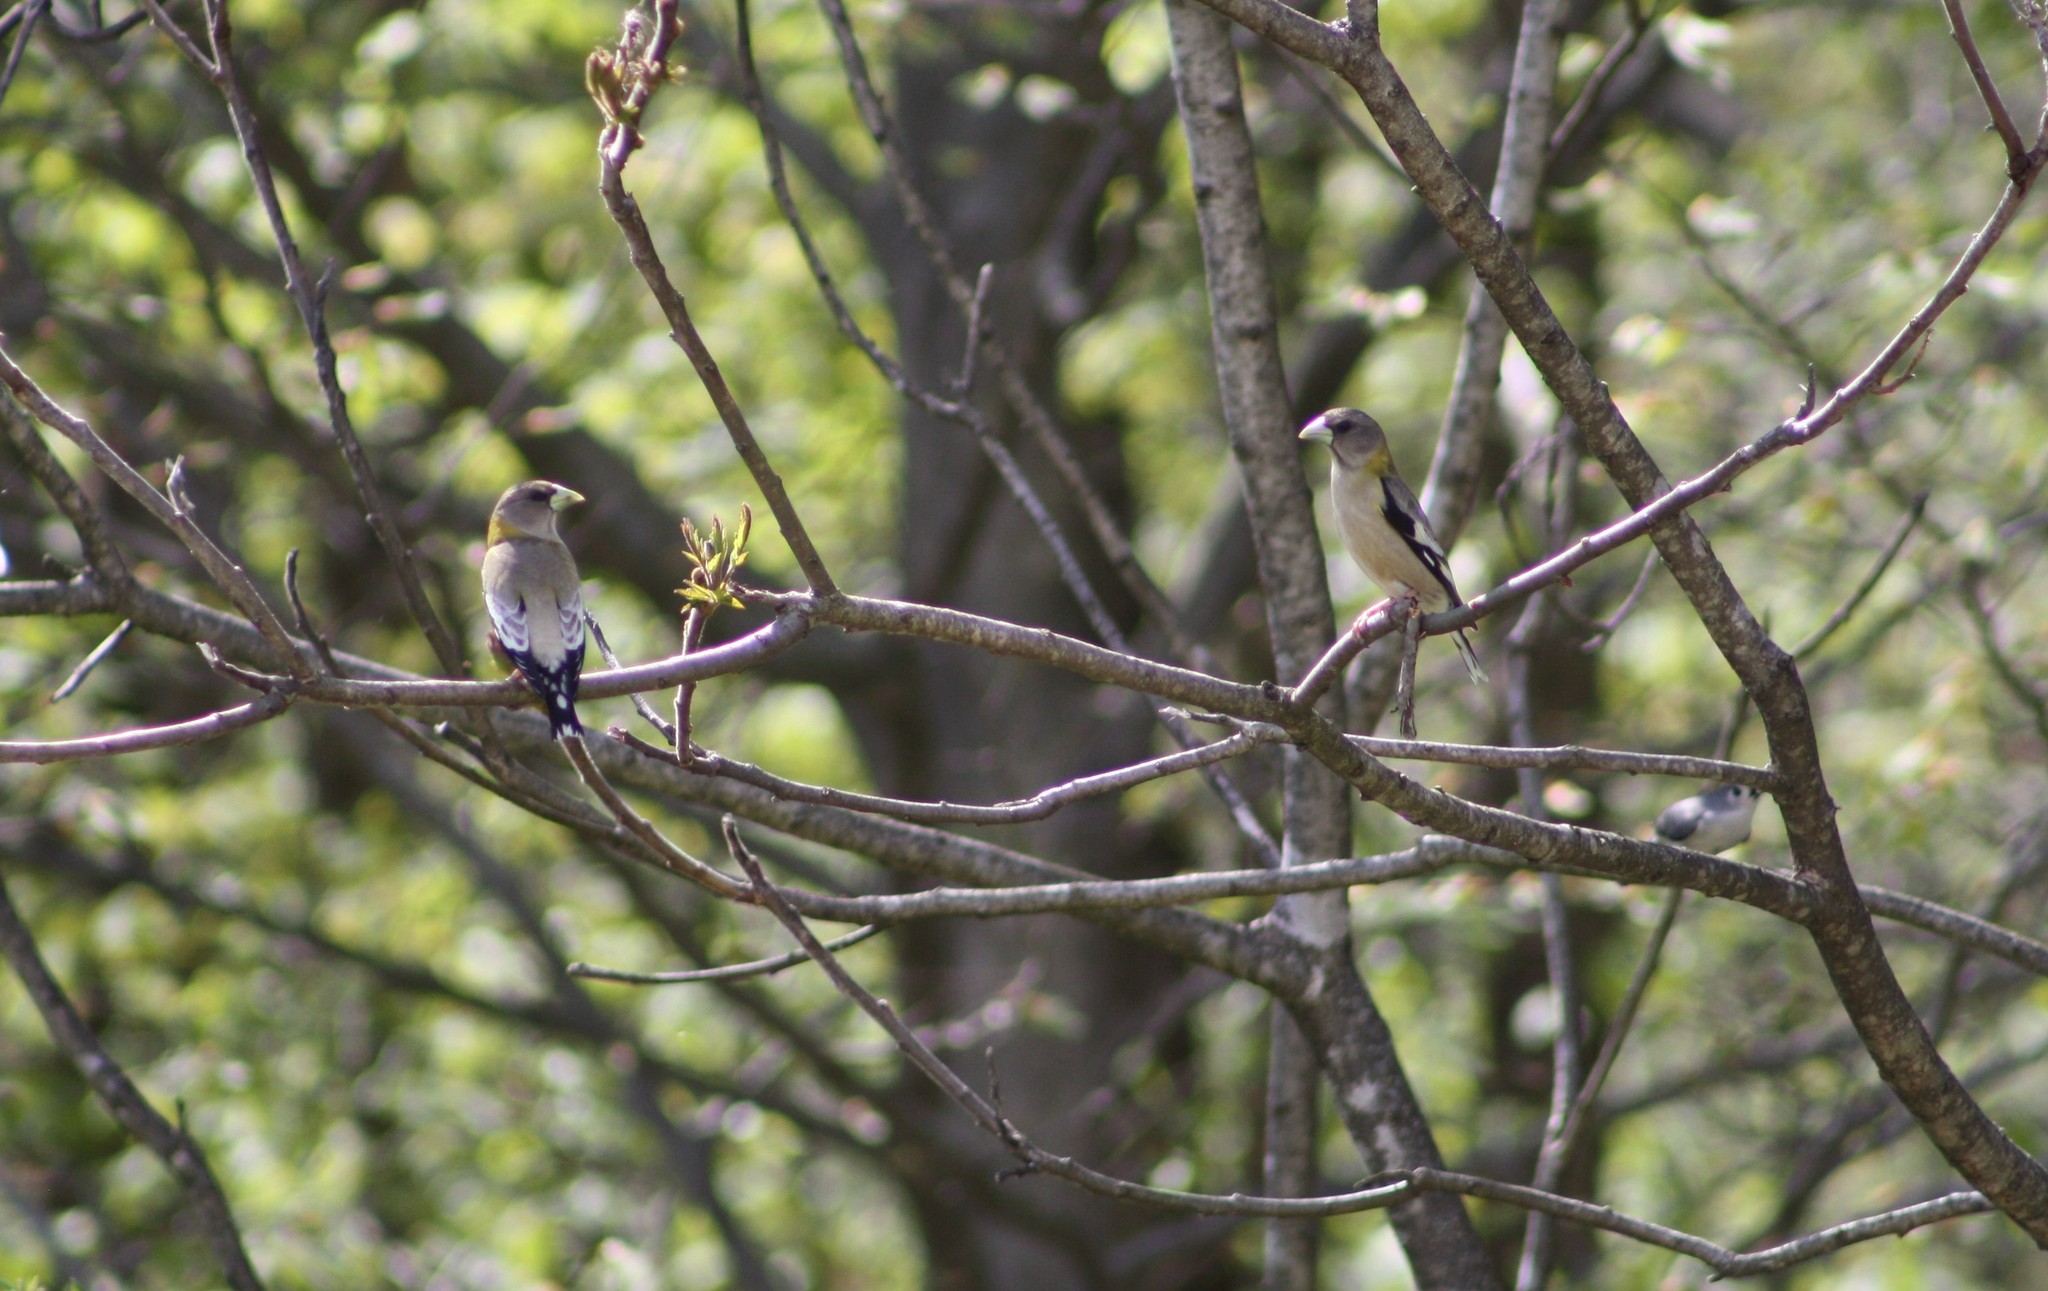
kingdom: Animalia
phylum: Chordata
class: Aves
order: Passeriformes
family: Fringillidae
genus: Hesperiphona
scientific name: Hesperiphona vespertina
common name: Evening grosbeak
